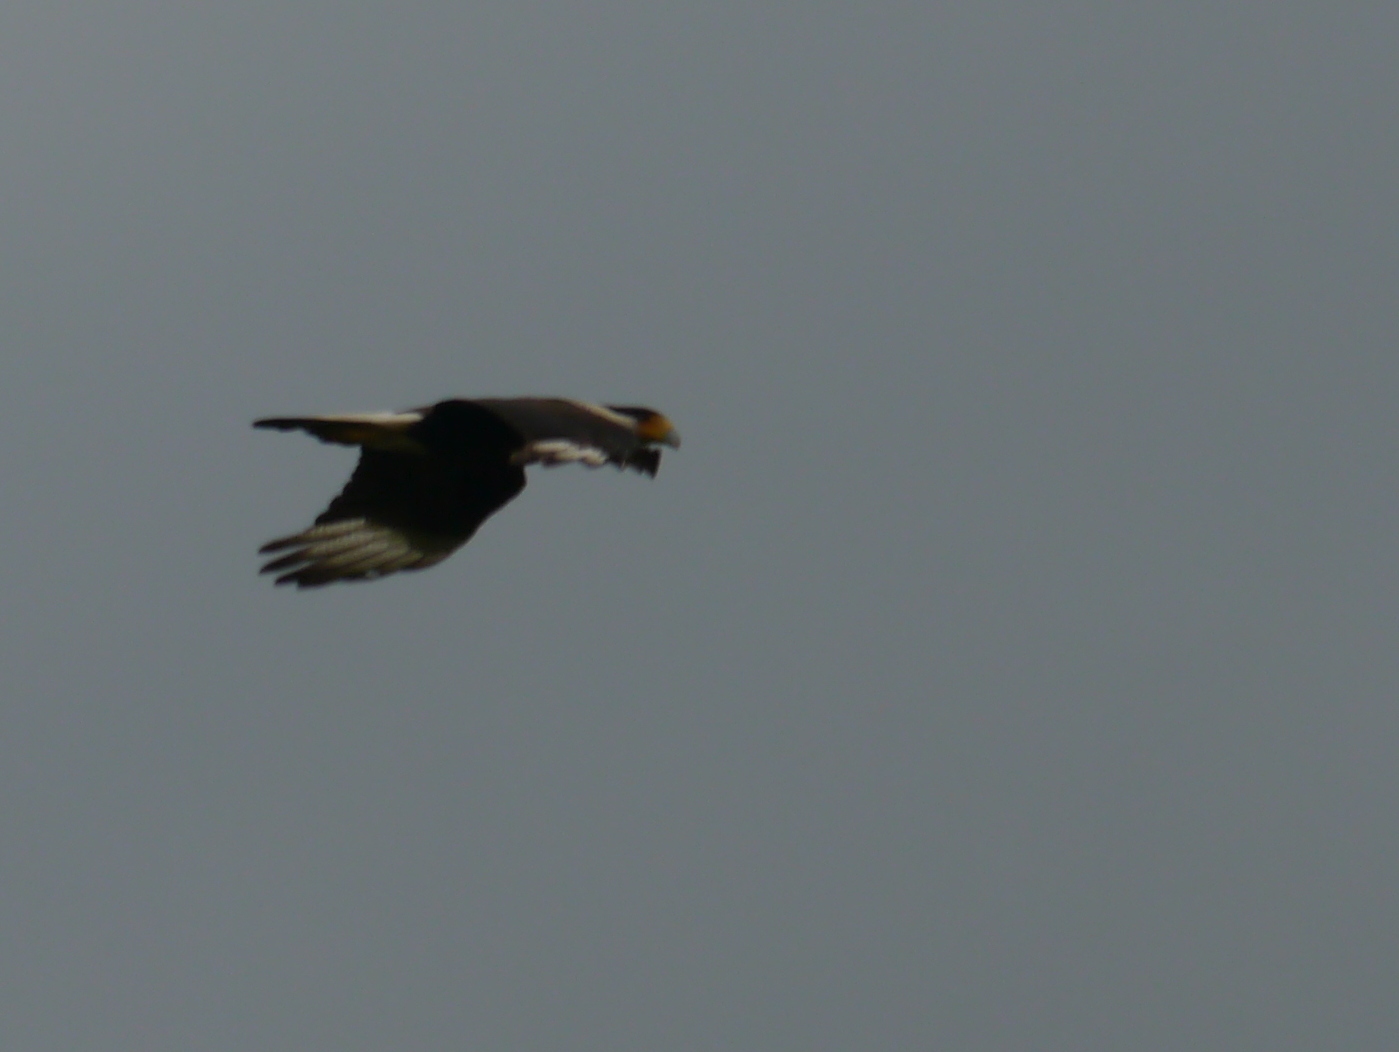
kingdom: Animalia
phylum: Chordata
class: Aves
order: Falconiformes
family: Falconidae
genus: Caracara
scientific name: Caracara plancus
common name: Southern caracara
